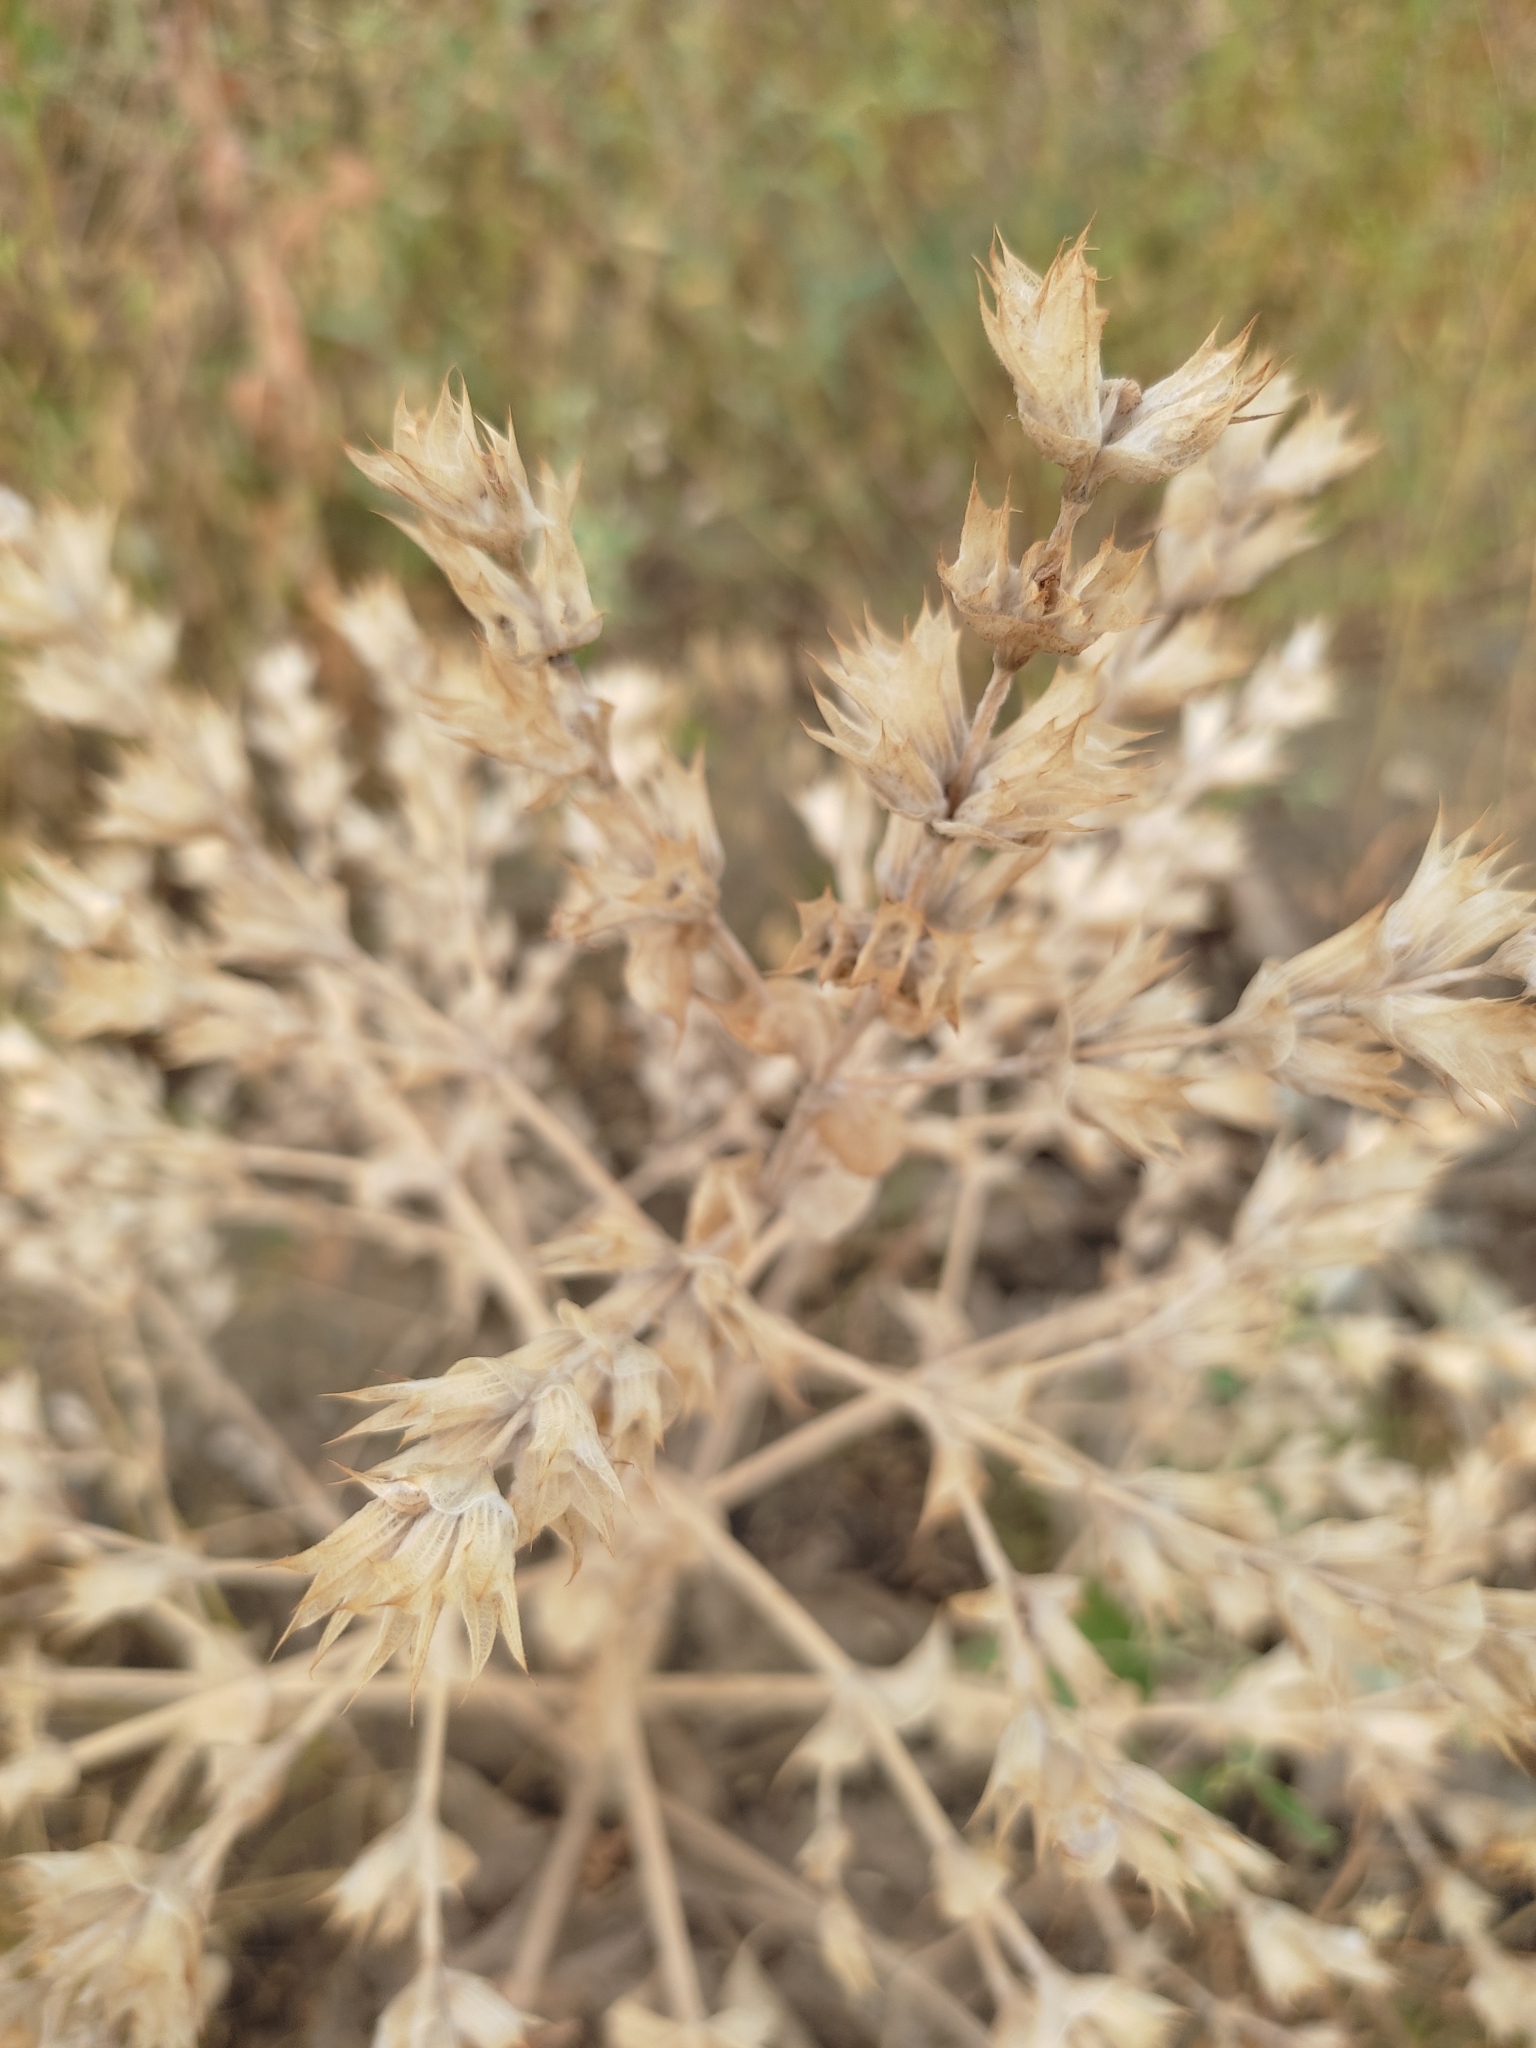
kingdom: Plantae
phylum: Tracheophyta
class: Magnoliopsida
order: Lamiales
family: Lamiaceae
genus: Salvia
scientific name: Salvia aethiopis
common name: Mediterranean sage
